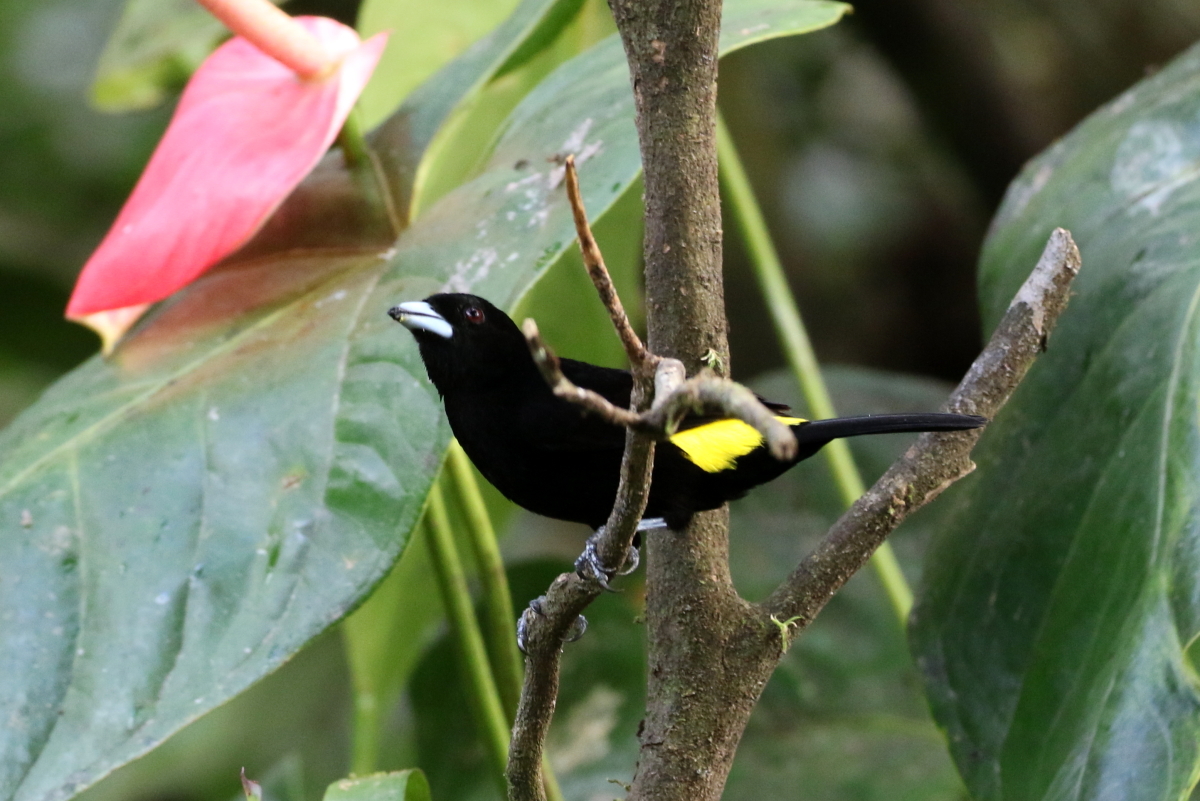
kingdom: Animalia
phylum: Chordata
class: Aves
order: Passeriformes
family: Thraupidae
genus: Ramphocelus
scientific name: Ramphocelus flammigerus
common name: Flame-rumped tanager
